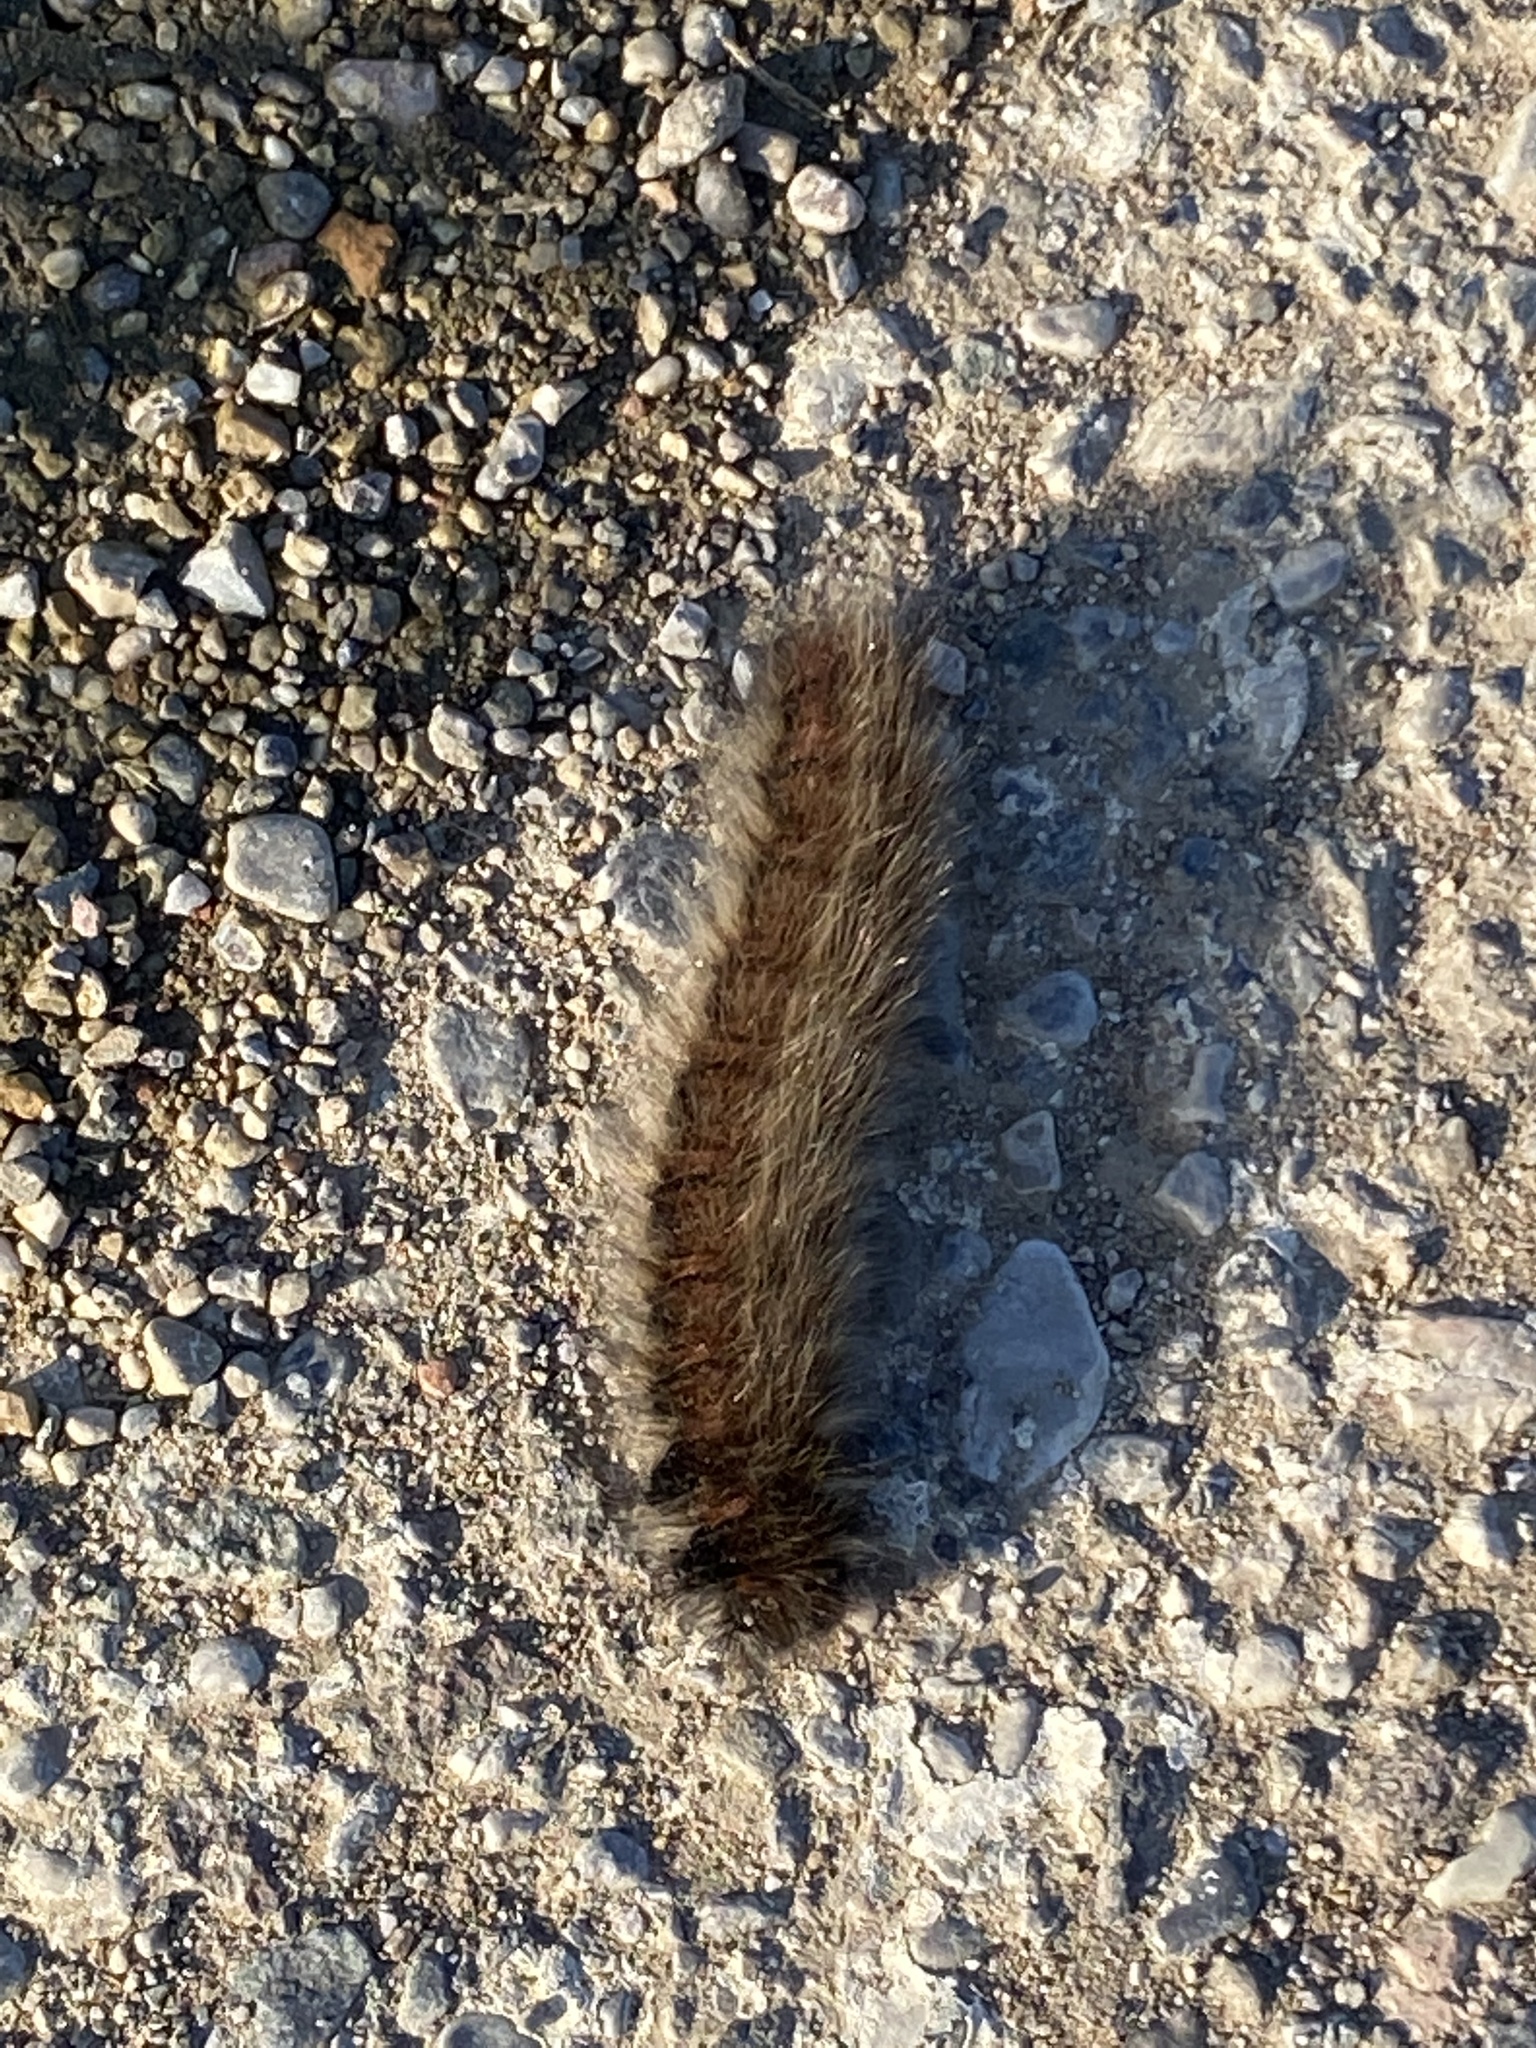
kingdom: Animalia
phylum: Arthropoda
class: Insecta
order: Lepidoptera
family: Lasiocampidae
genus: Macrothylacia
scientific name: Macrothylacia rubi
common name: Fox moth
